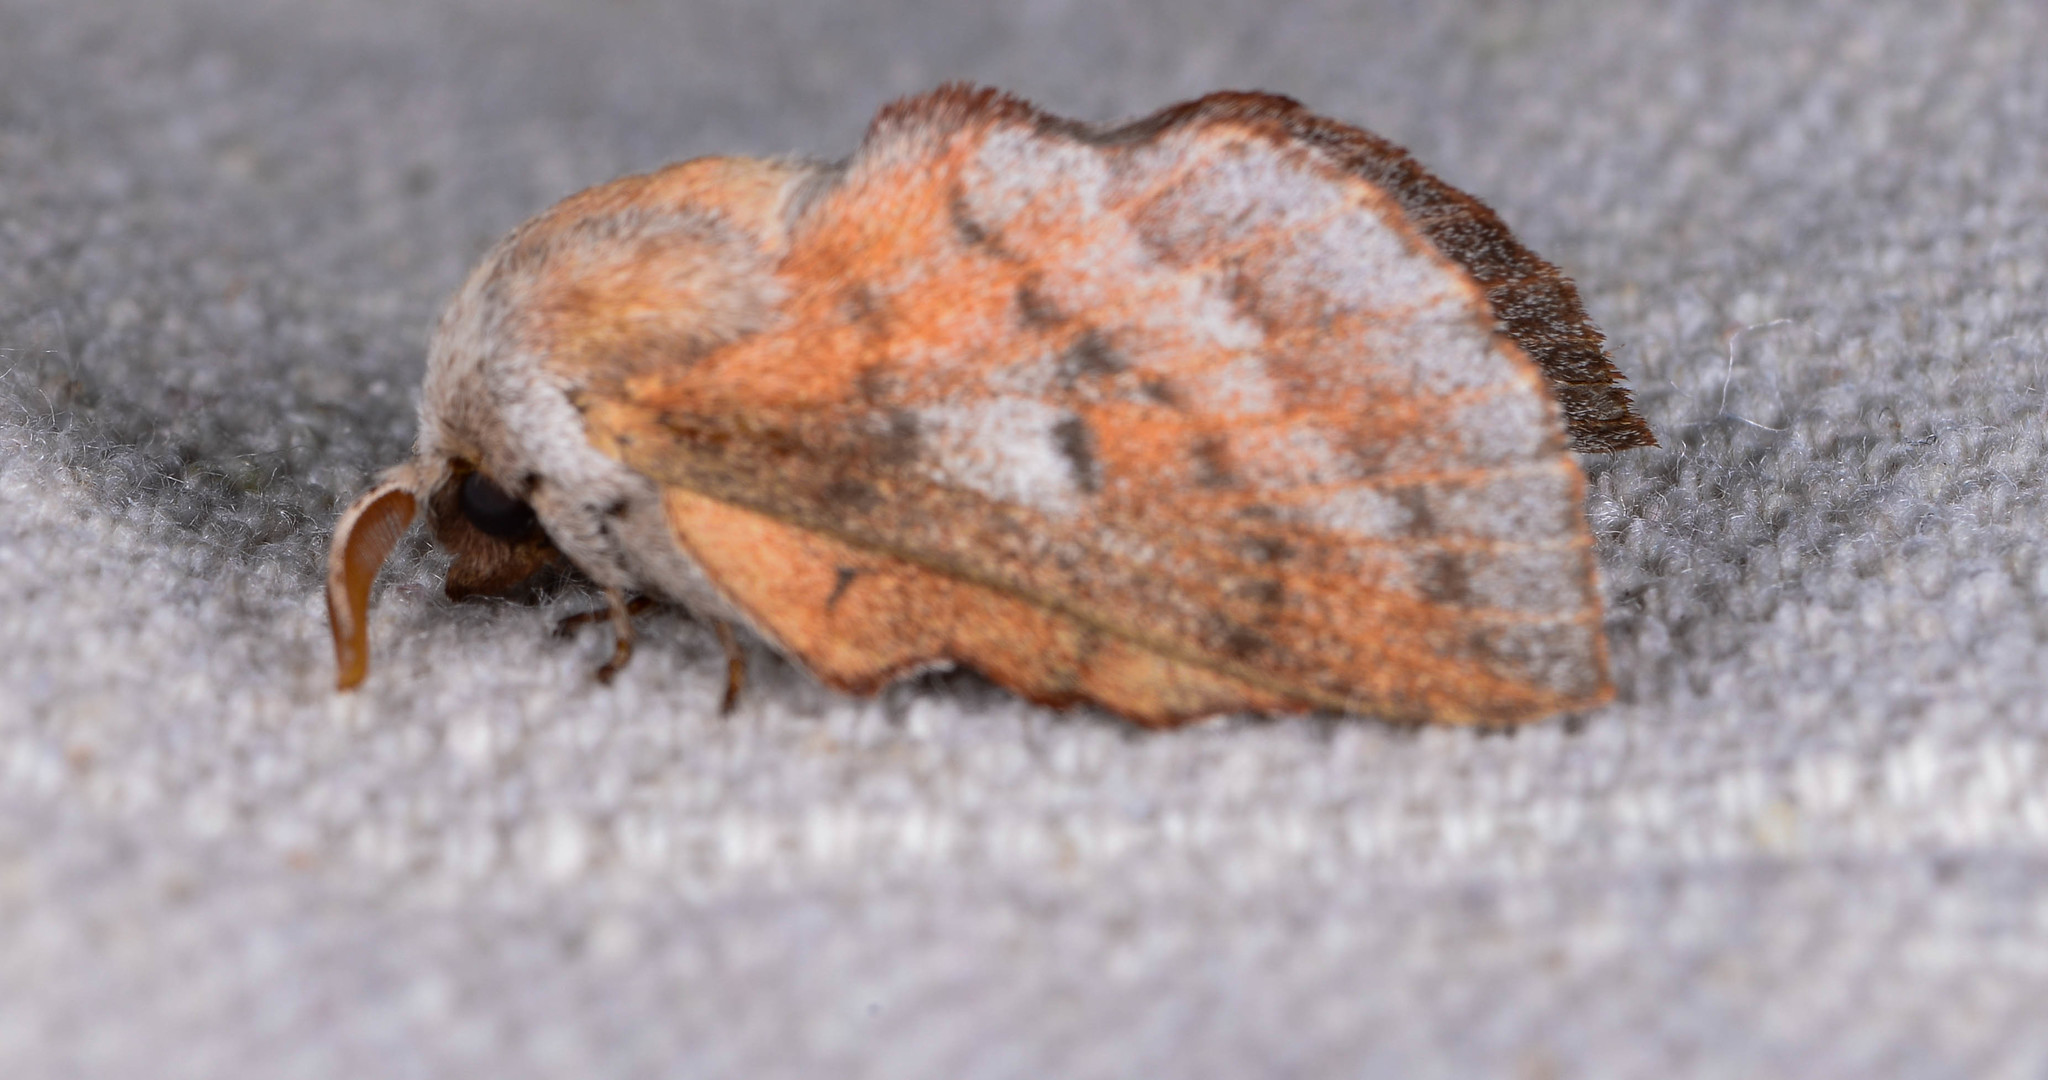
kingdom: Animalia
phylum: Arthropoda
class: Insecta
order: Lepidoptera
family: Lasiocampidae
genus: Phyllodesma
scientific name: Phyllodesma americana
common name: American lappet moth
